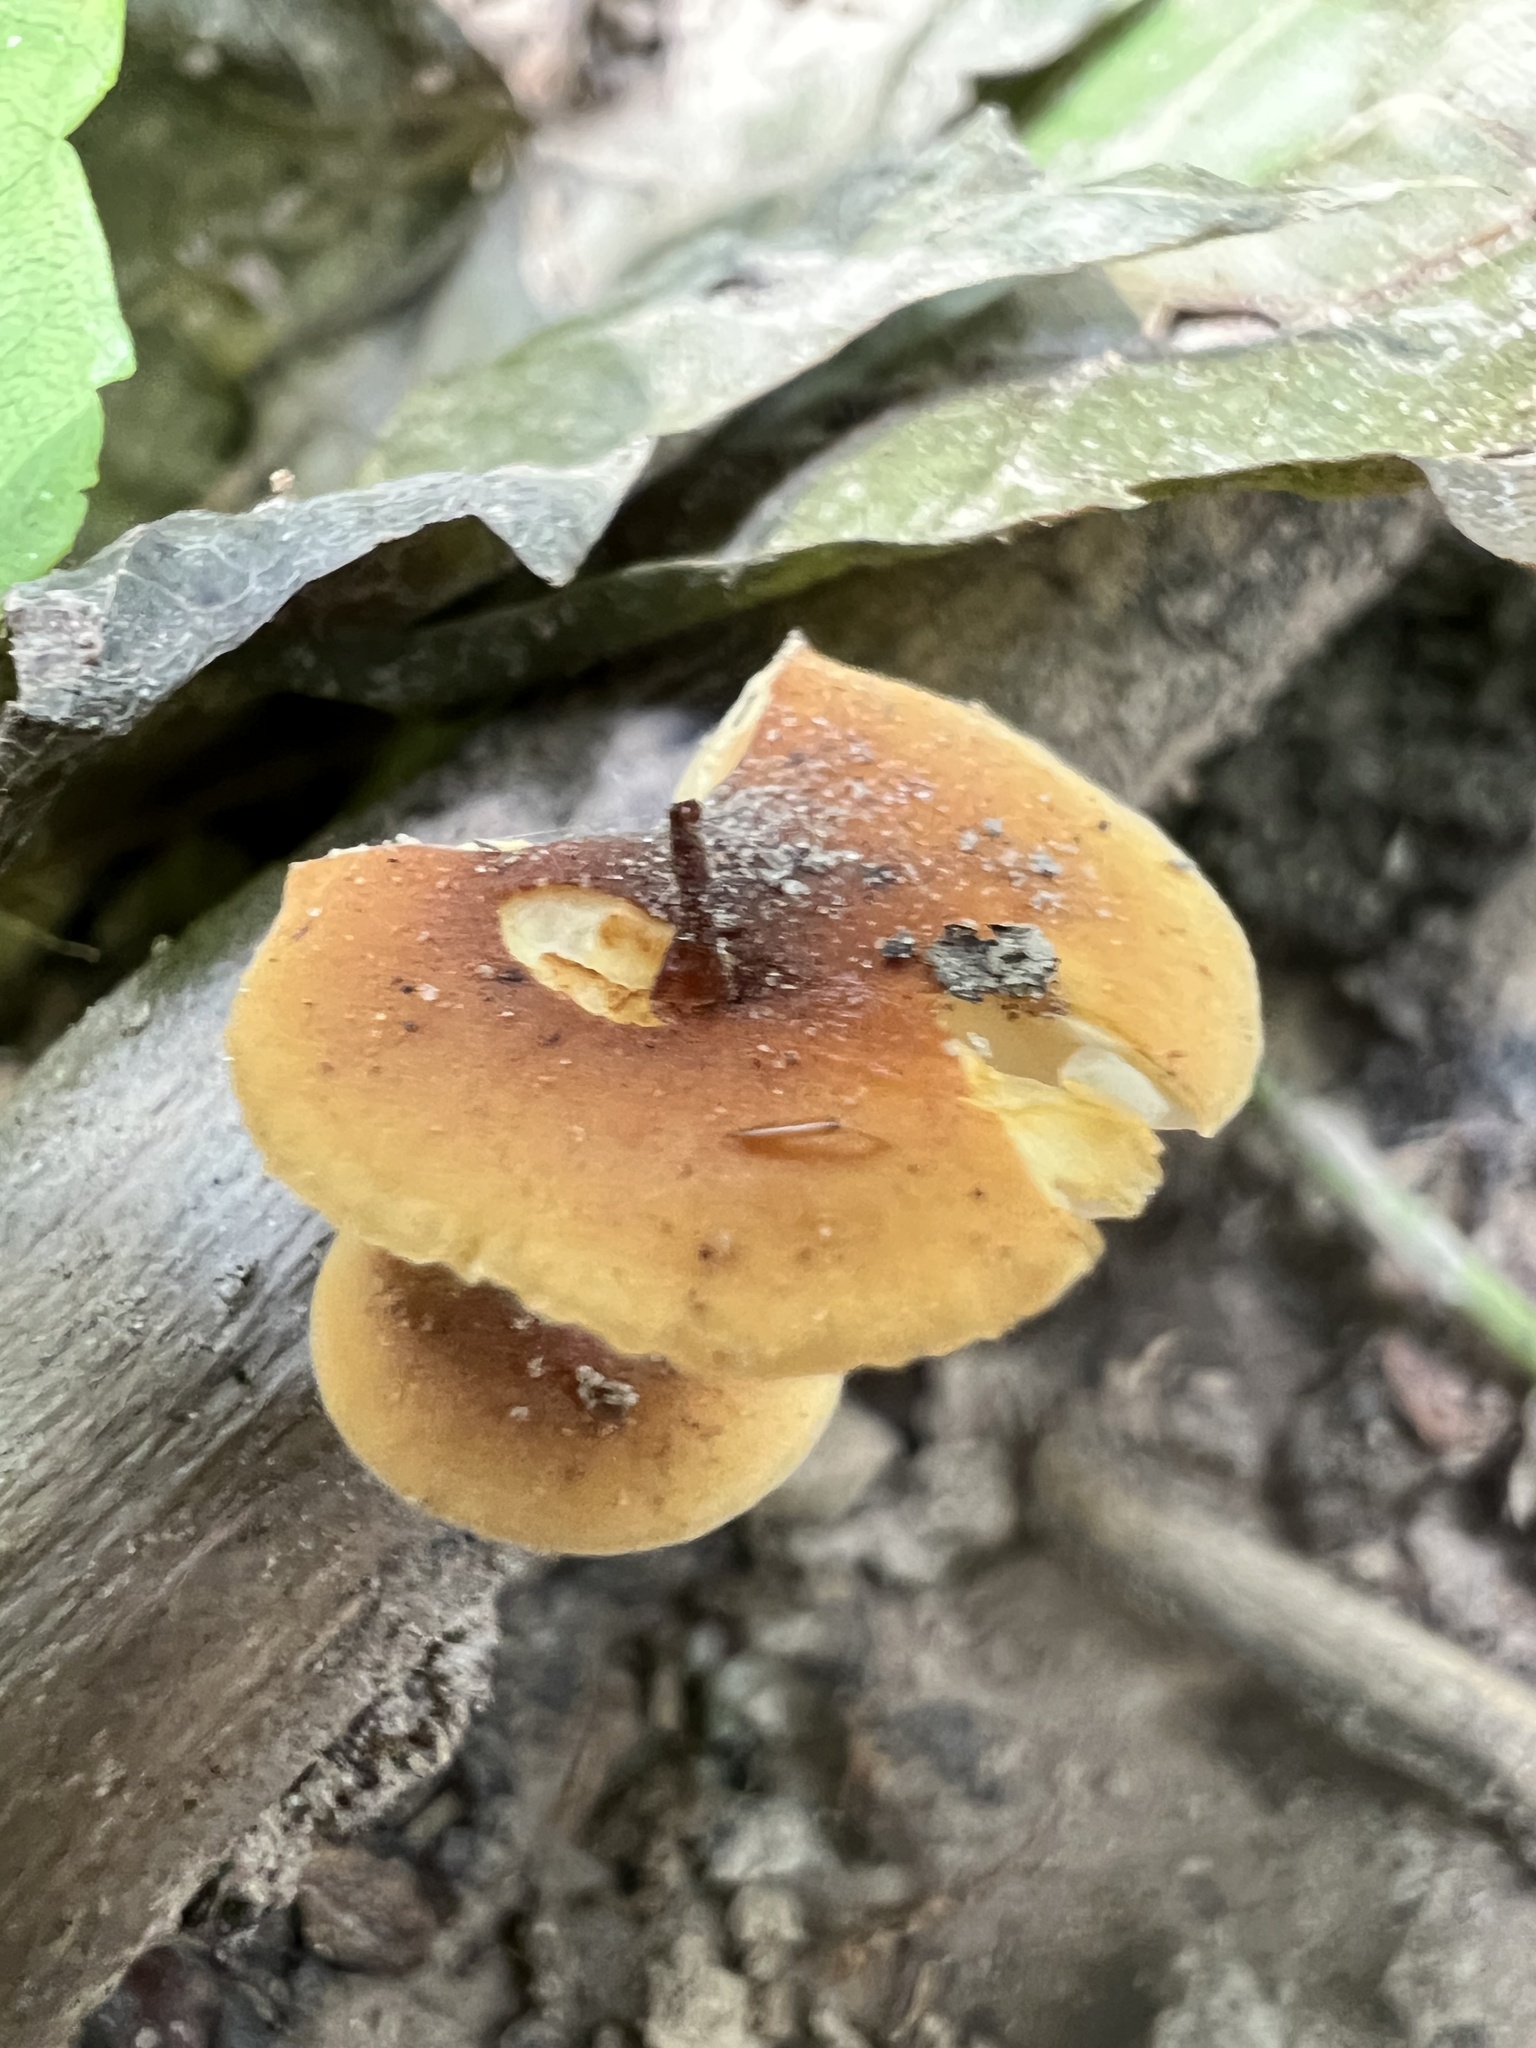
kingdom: Fungi
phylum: Basidiomycota
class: Agaricomycetes
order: Agaricales
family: Physalacriaceae
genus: Flammulina
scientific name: Flammulina velutipes
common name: Velvet shank
